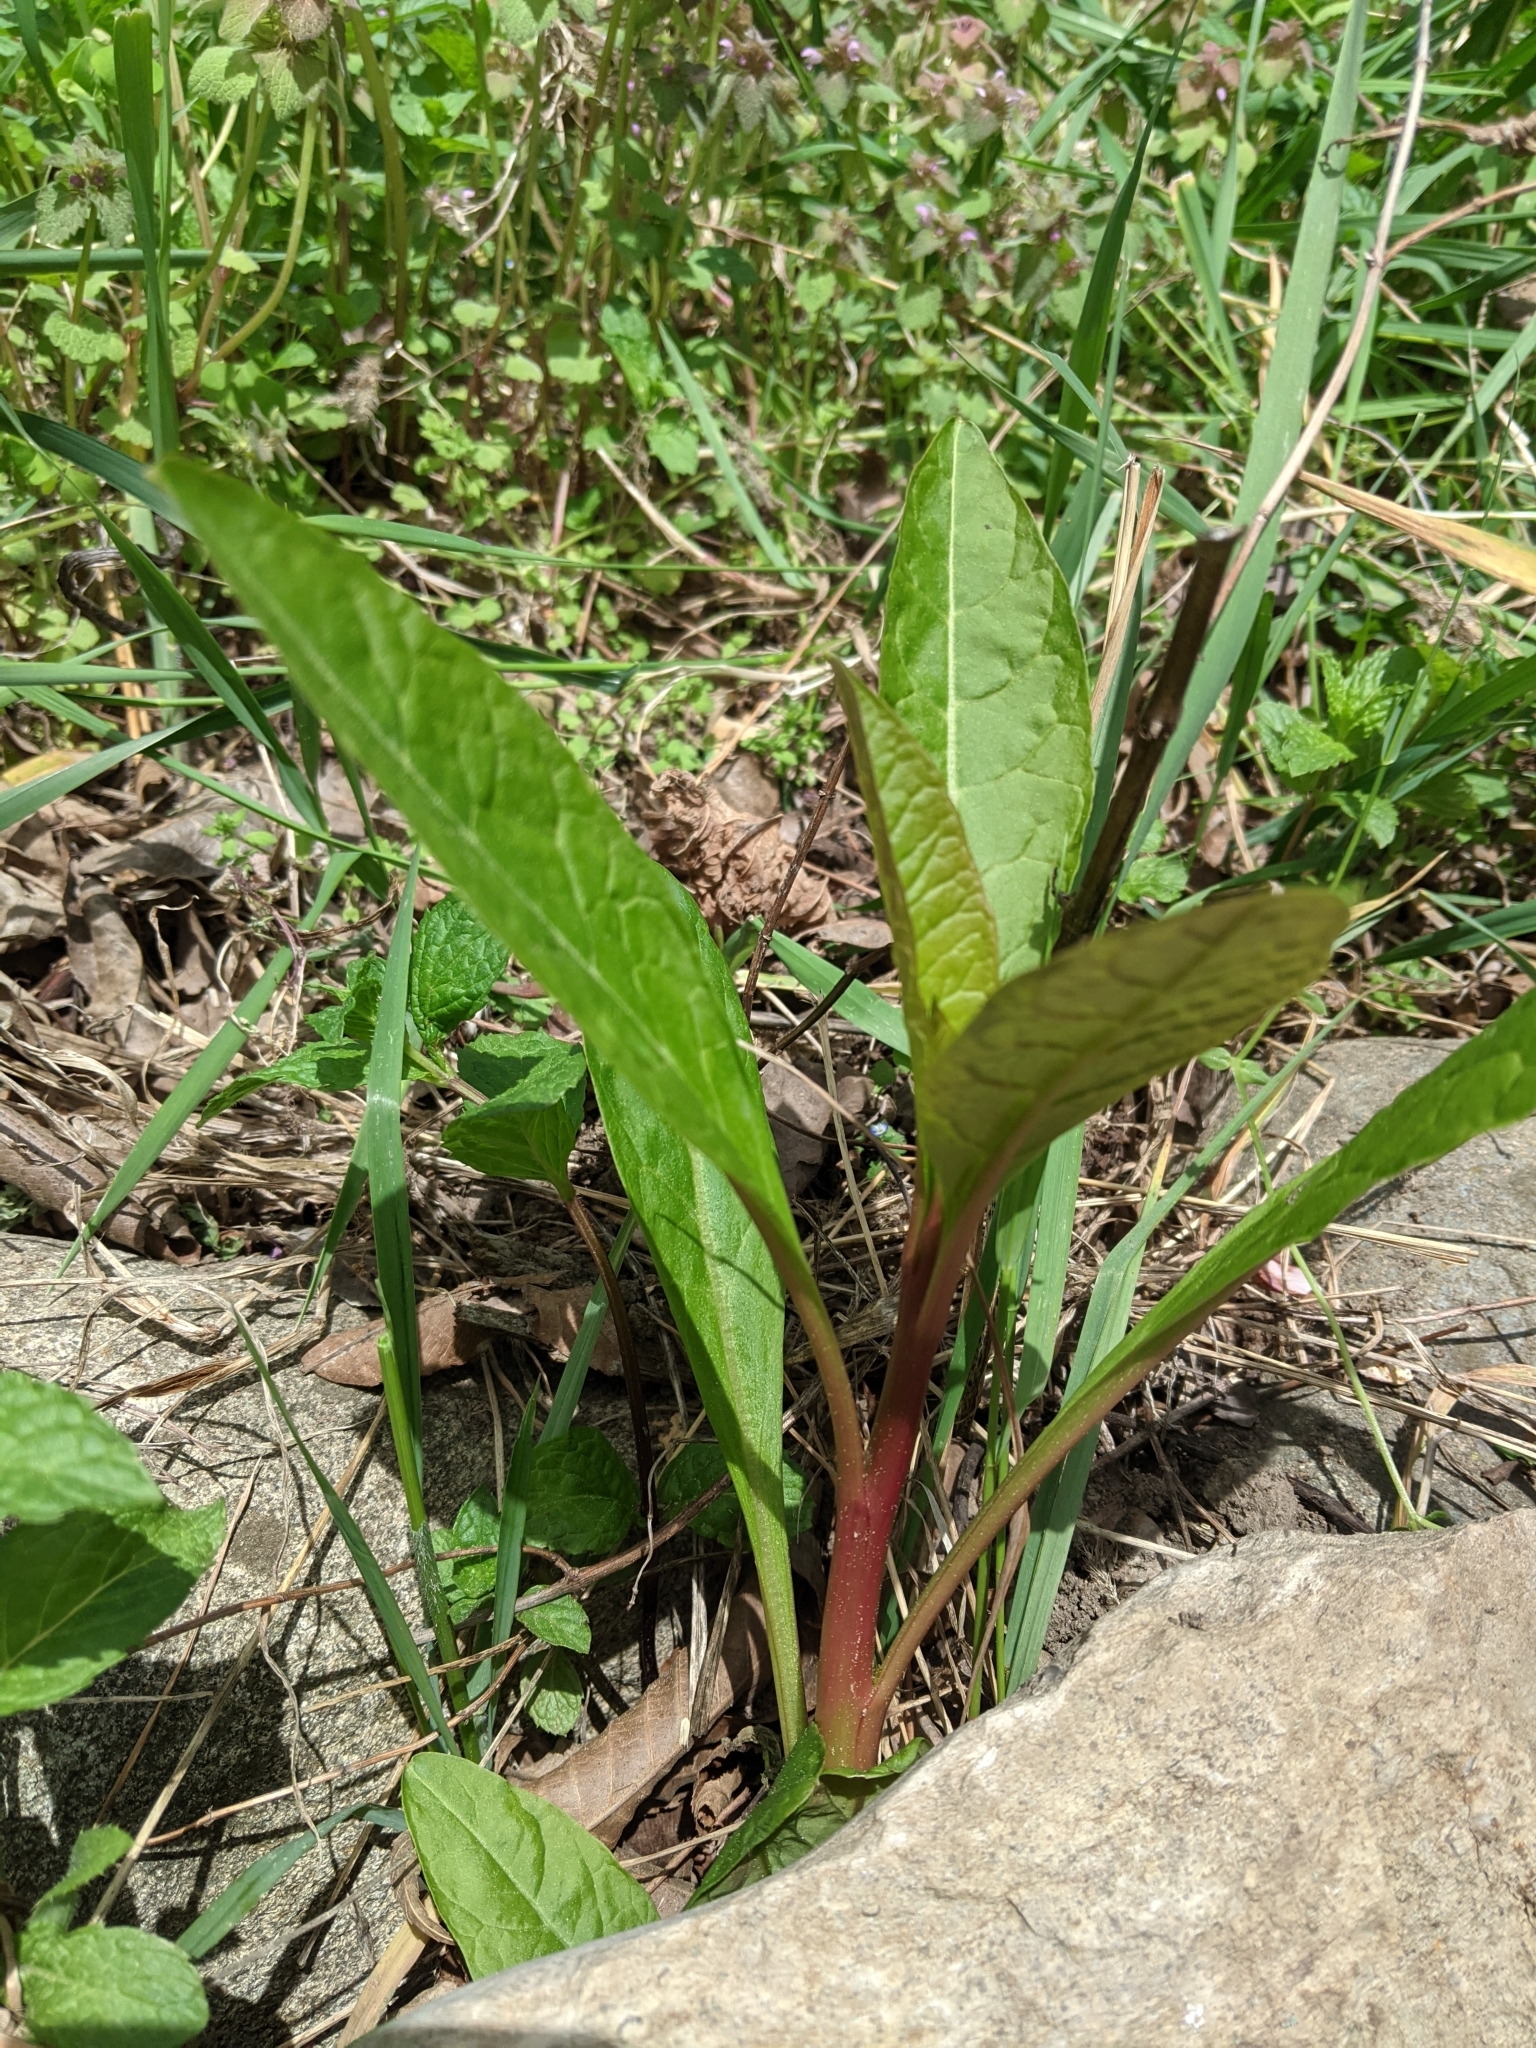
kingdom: Plantae
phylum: Tracheophyta
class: Magnoliopsida
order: Caryophyllales
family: Phytolaccaceae
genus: Phytolacca
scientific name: Phytolacca americana
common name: American pokeweed
